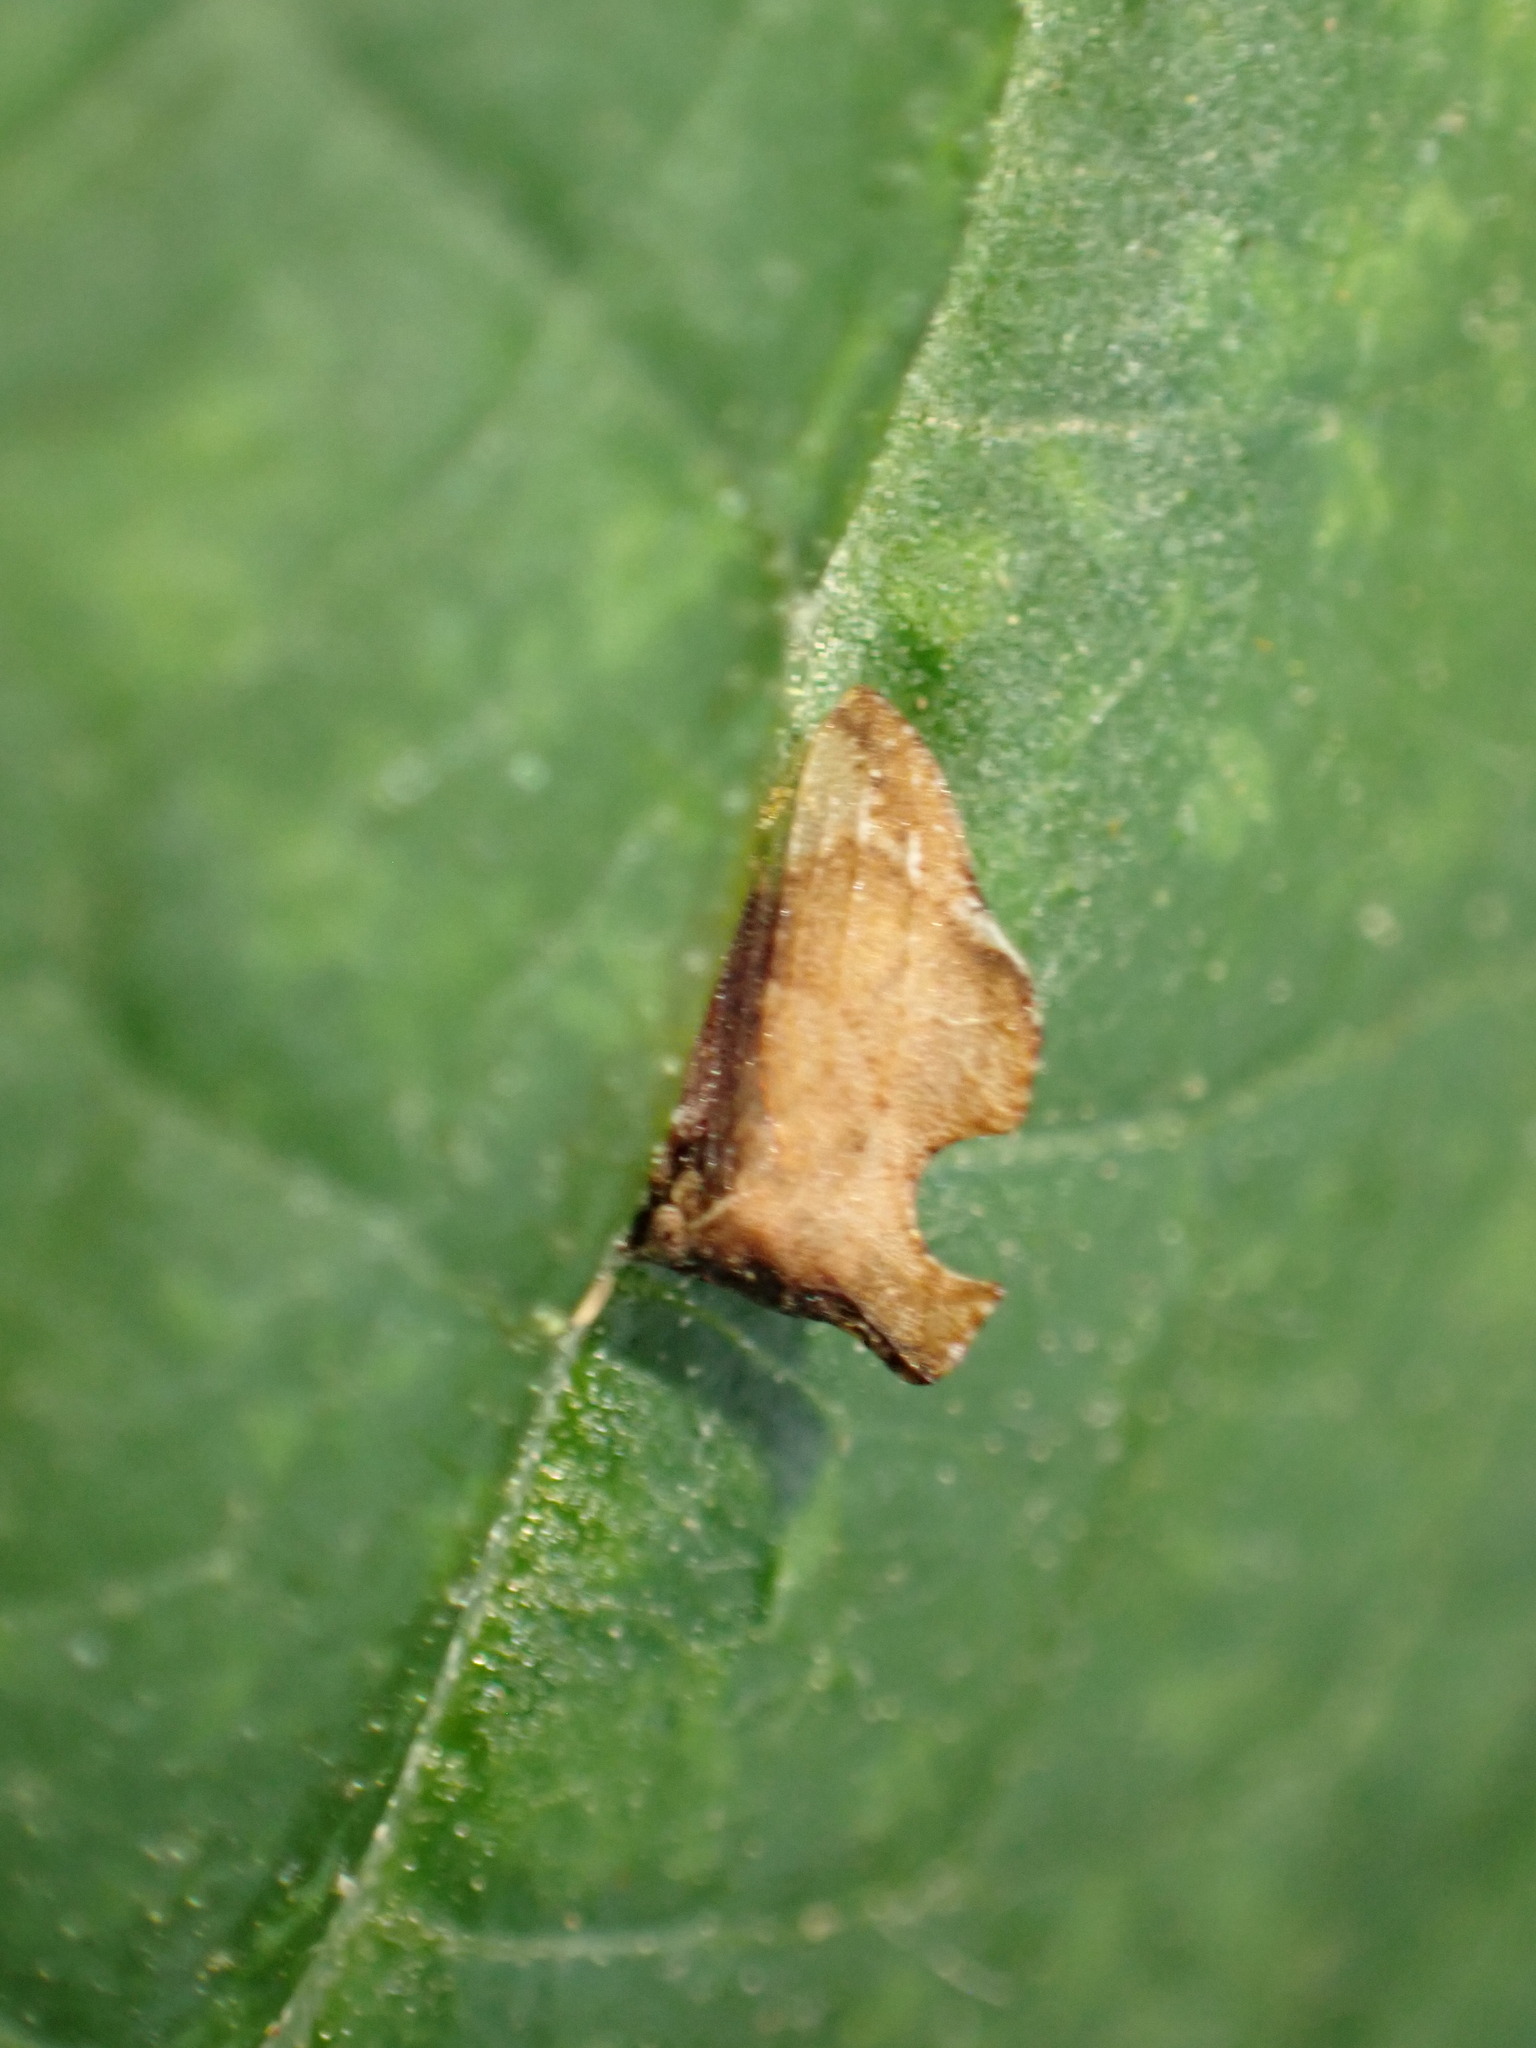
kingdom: Animalia
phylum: Arthropoda
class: Insecta
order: Hemiptera
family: Membracidae
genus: Entylia
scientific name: Entylia carinata
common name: Keeled treehopper
